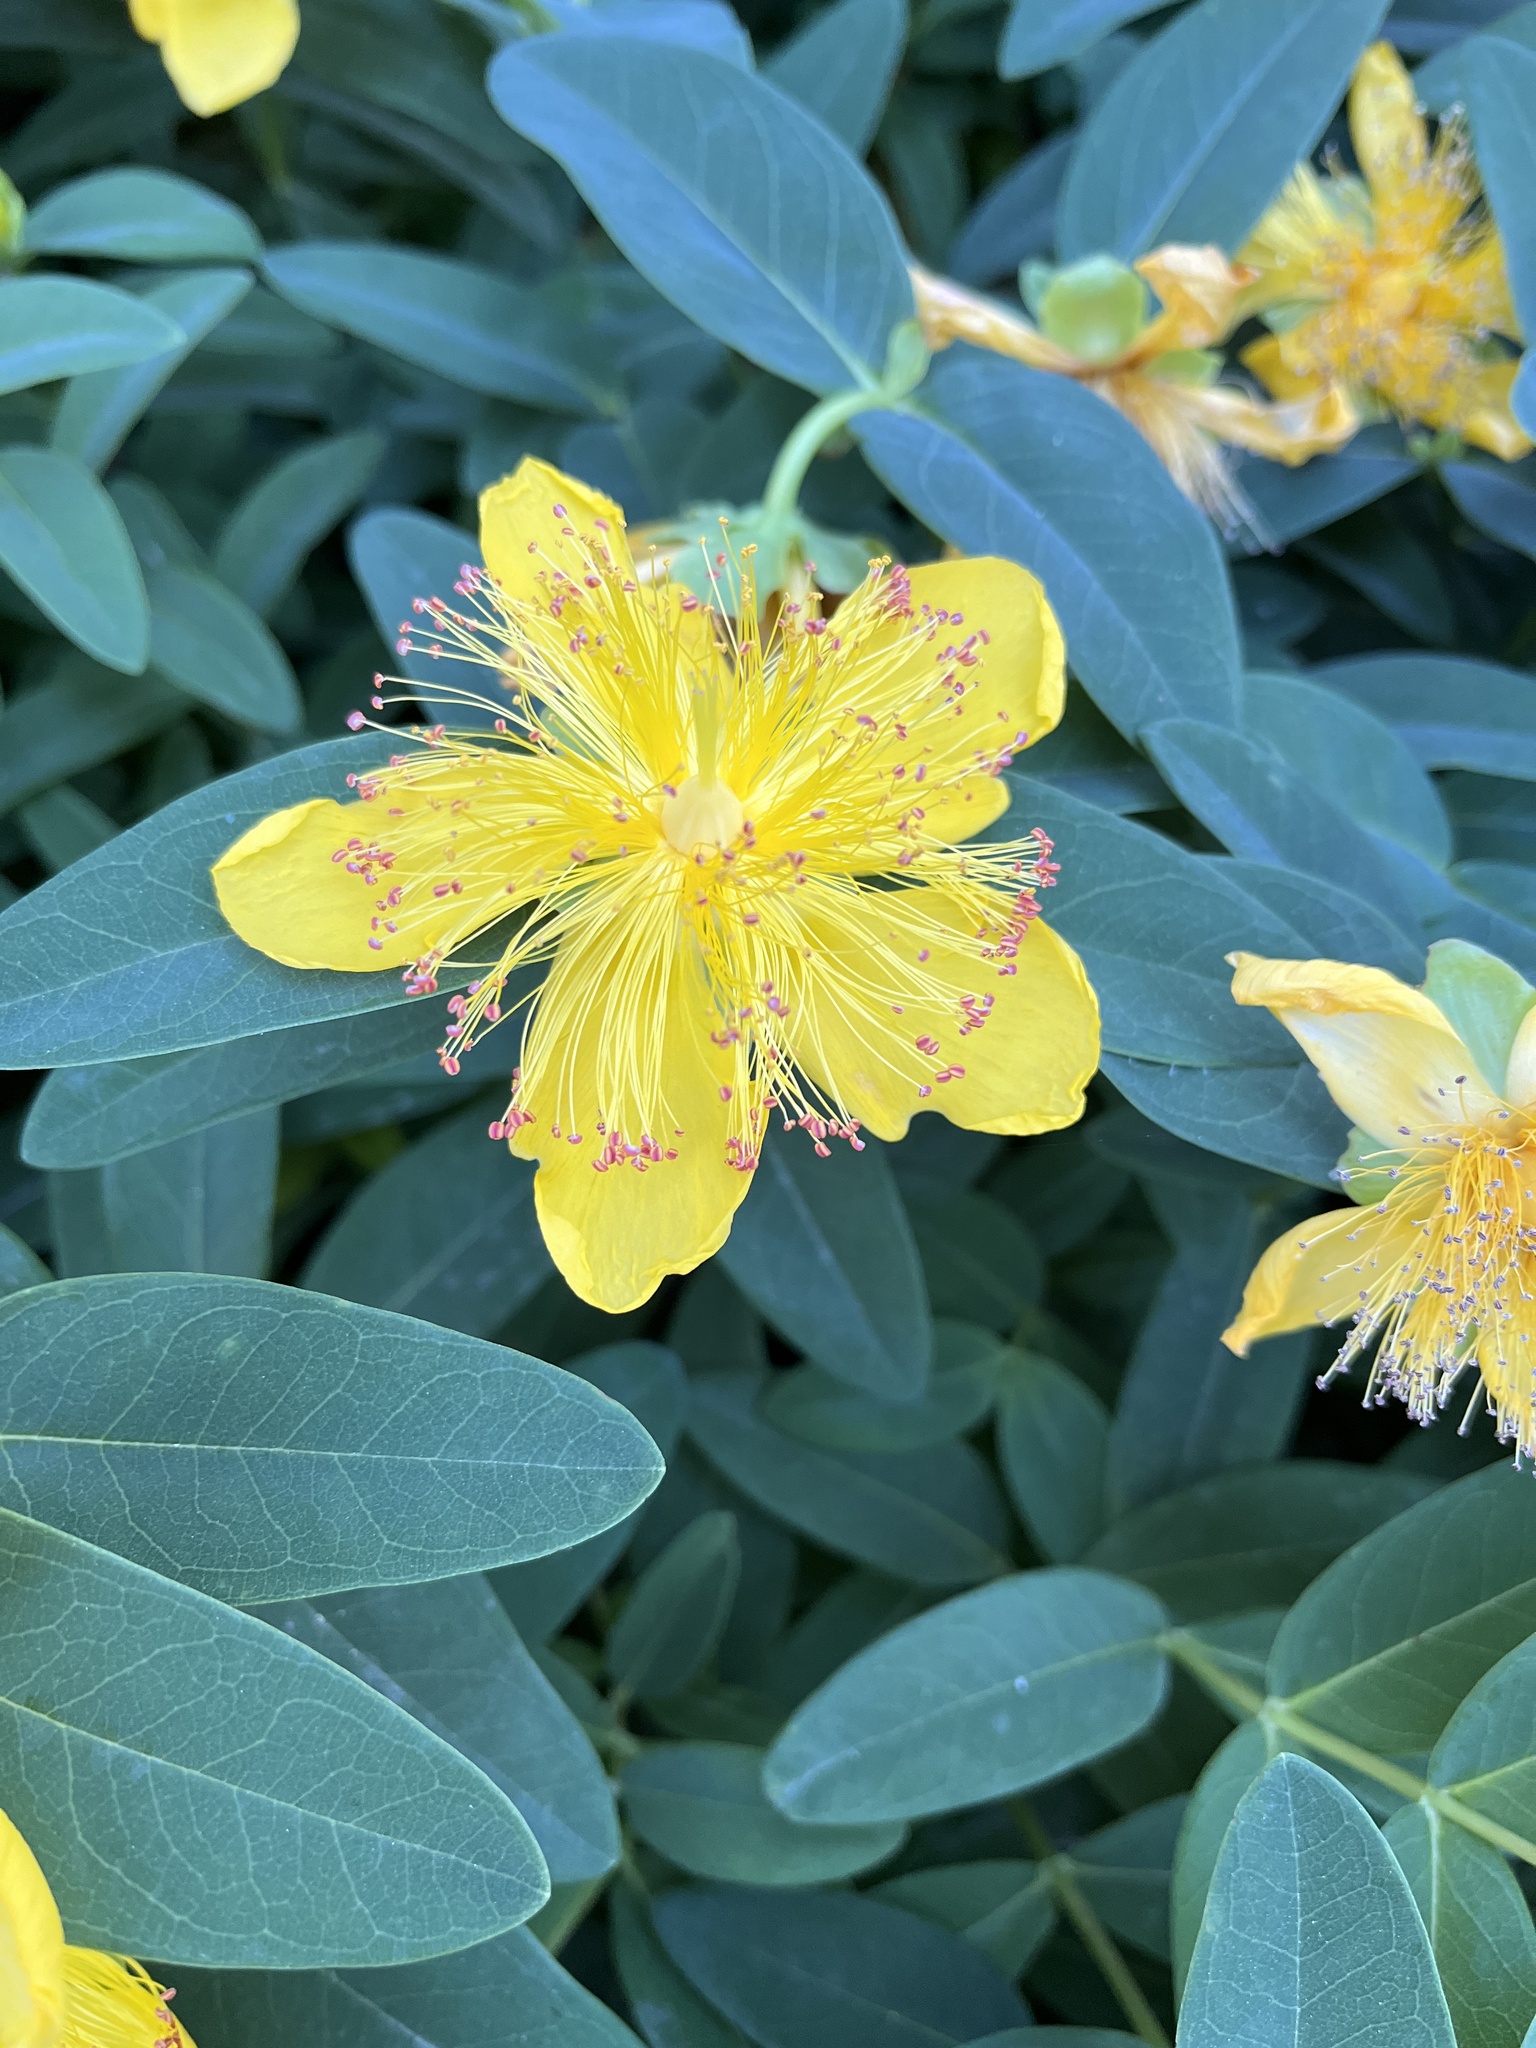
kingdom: Plantae
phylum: Tracheophyta
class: Magnoliopsida
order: Malpighiales
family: Hypericaceae
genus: Hypericum
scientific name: Hypericum calycinum
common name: Rose-of-sharon
